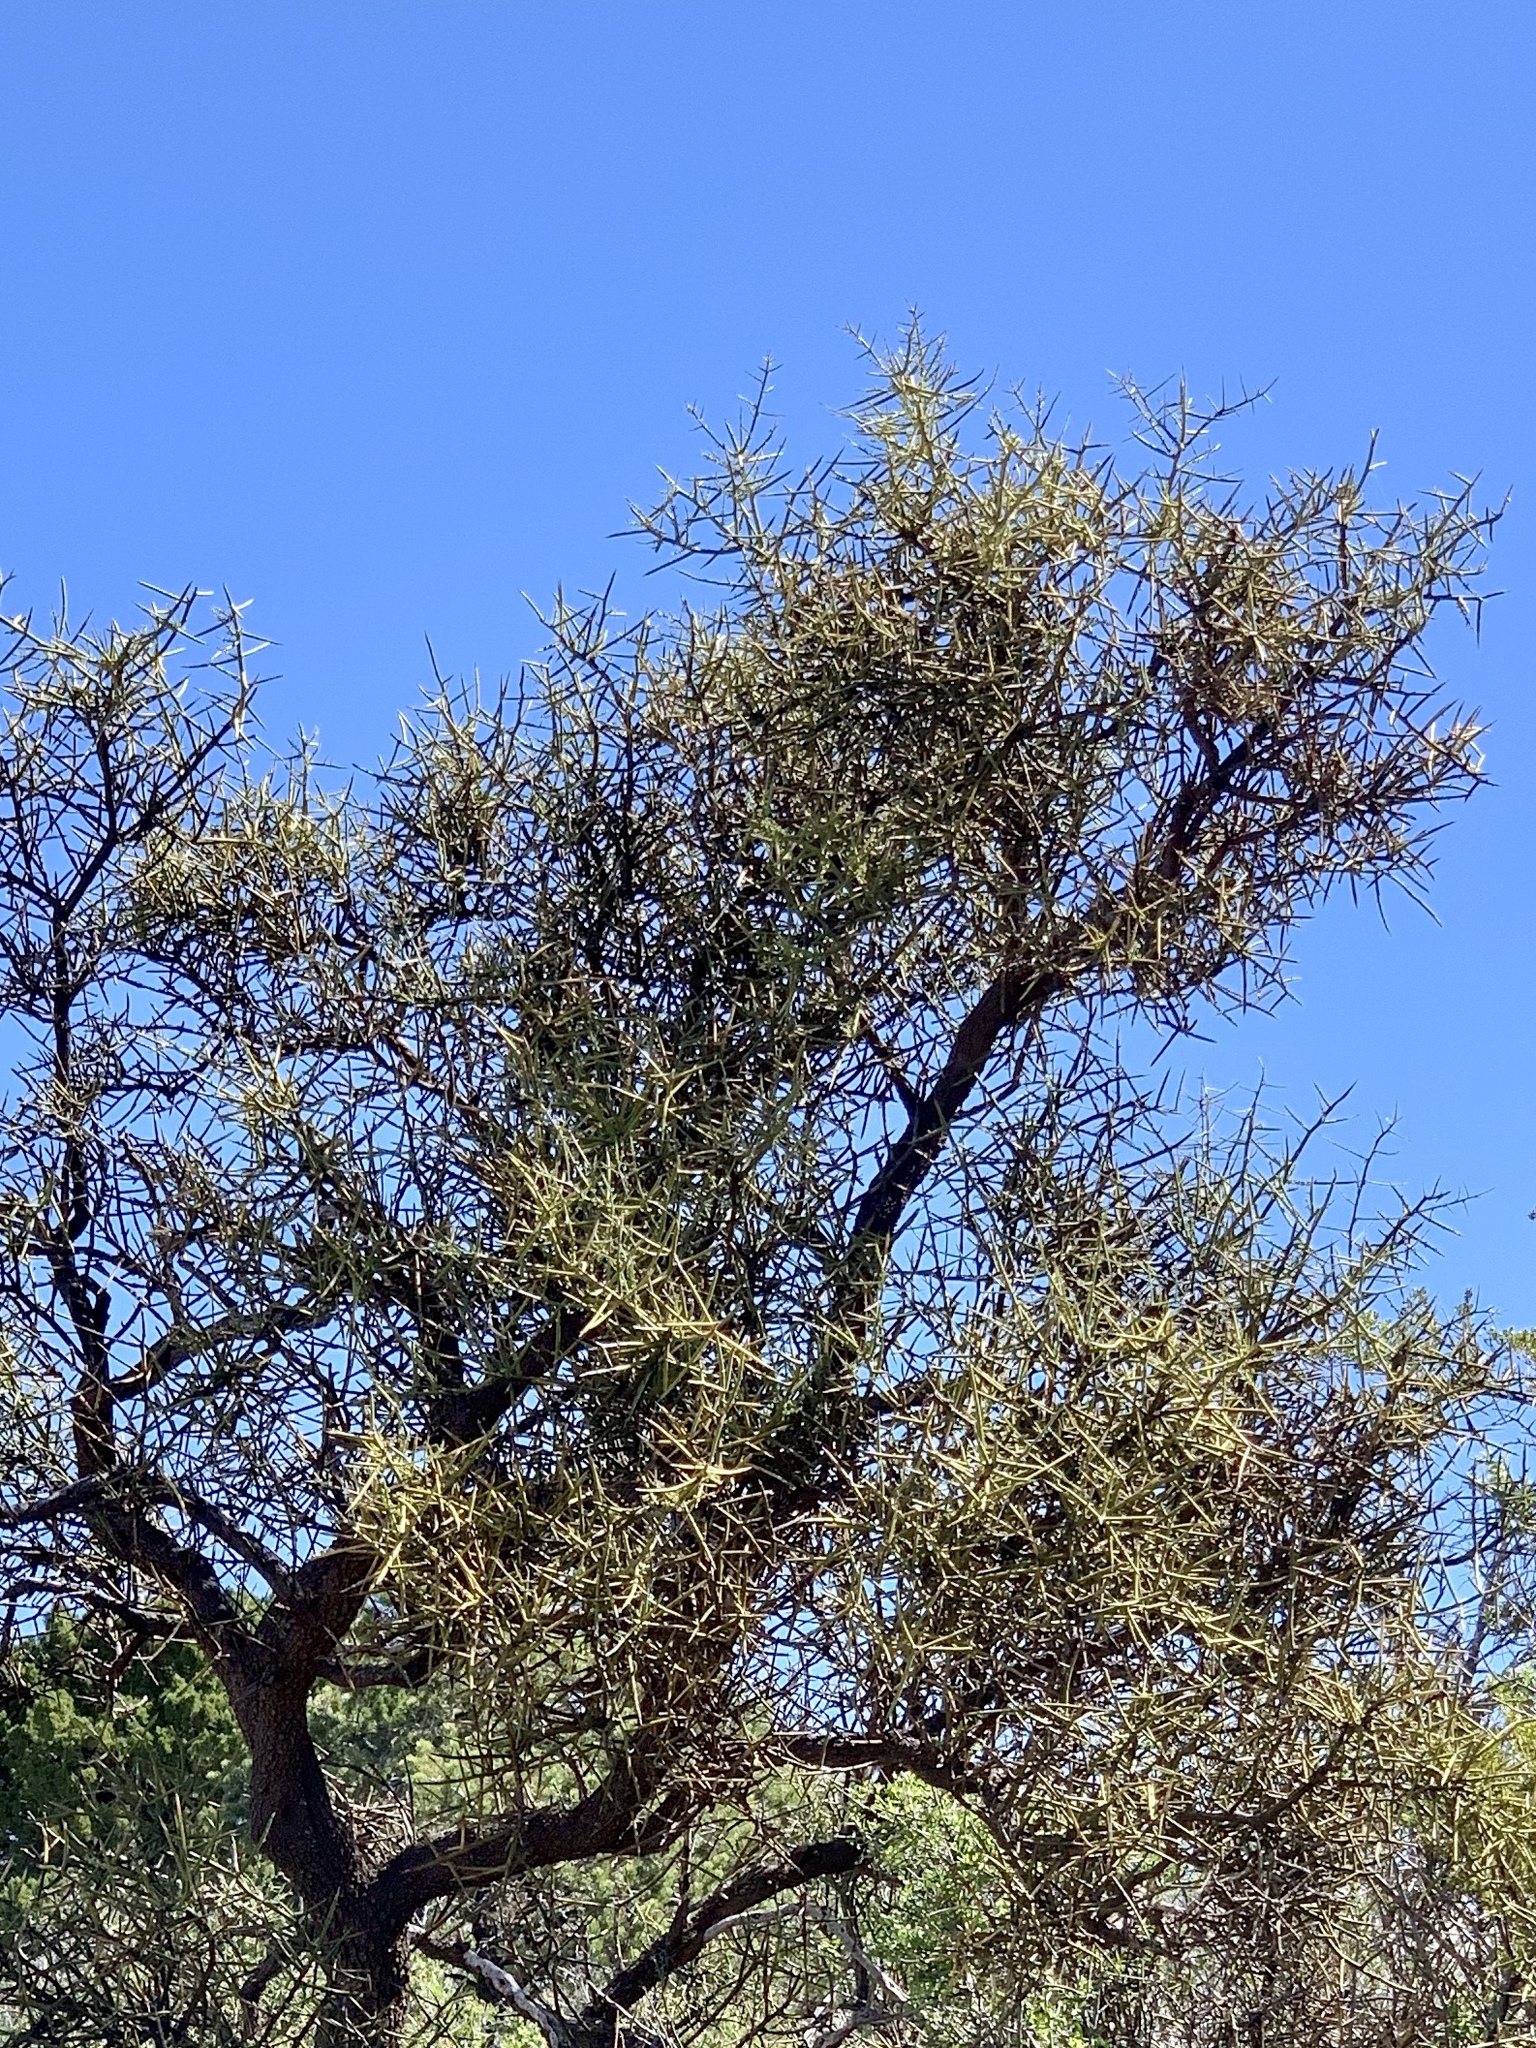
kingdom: Plantae
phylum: Tracheophyta
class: Magnoliopsida
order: Brassicales
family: Koeberliniaceae
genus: Koeberlinia
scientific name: Koeberlinia spinosa
